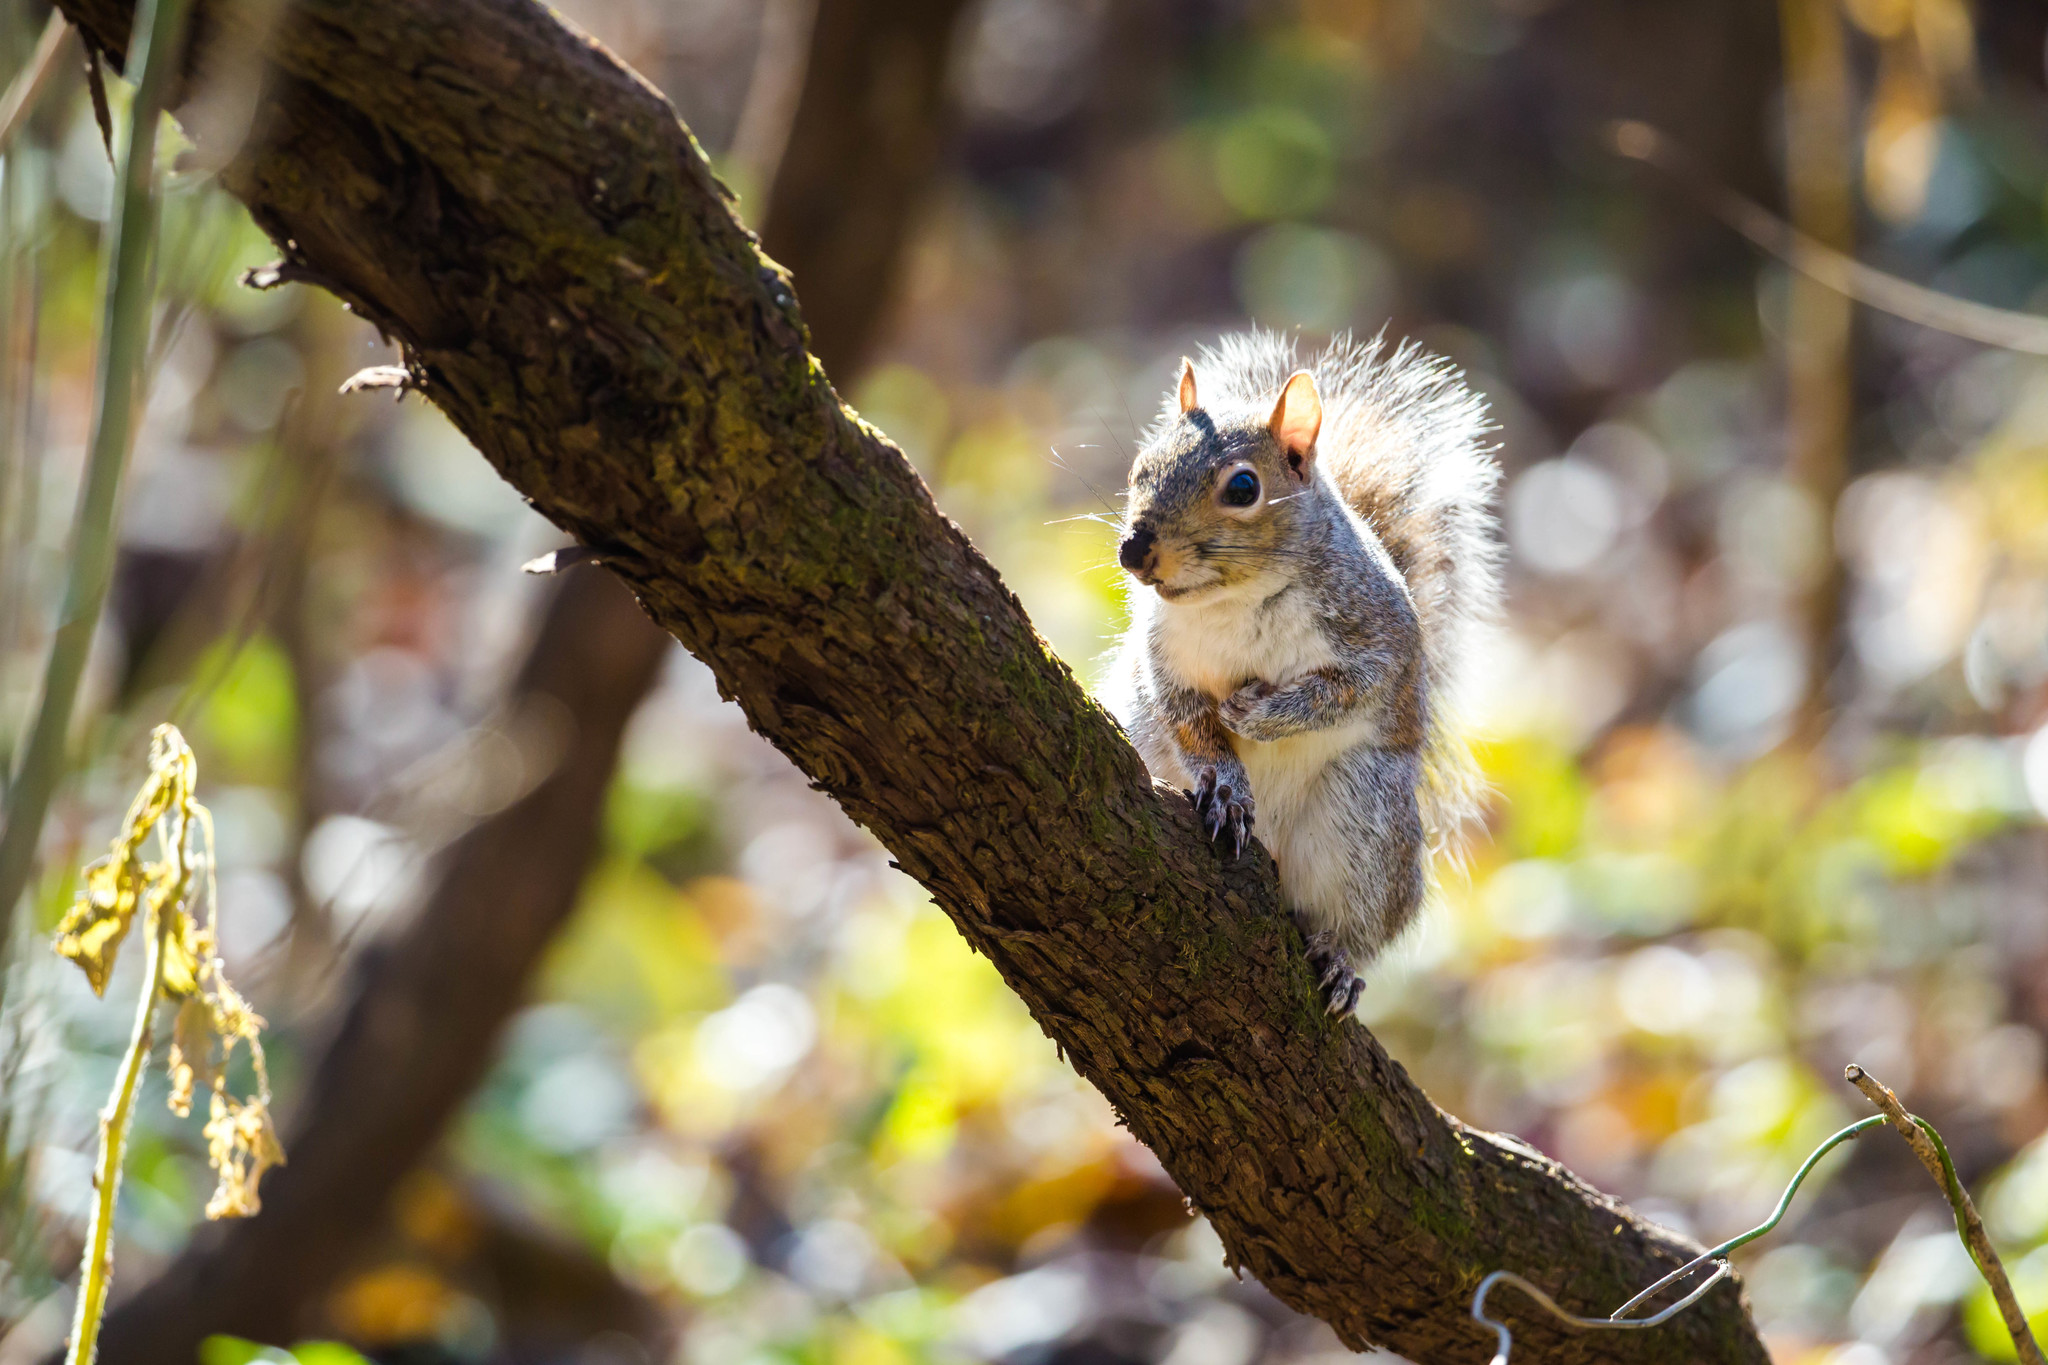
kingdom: Animalia
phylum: Chordata
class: Mammalia
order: Rodentia
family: Sciuridae
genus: Sciurus
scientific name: Sciurus carolinensis
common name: Eastern gray squirrel
